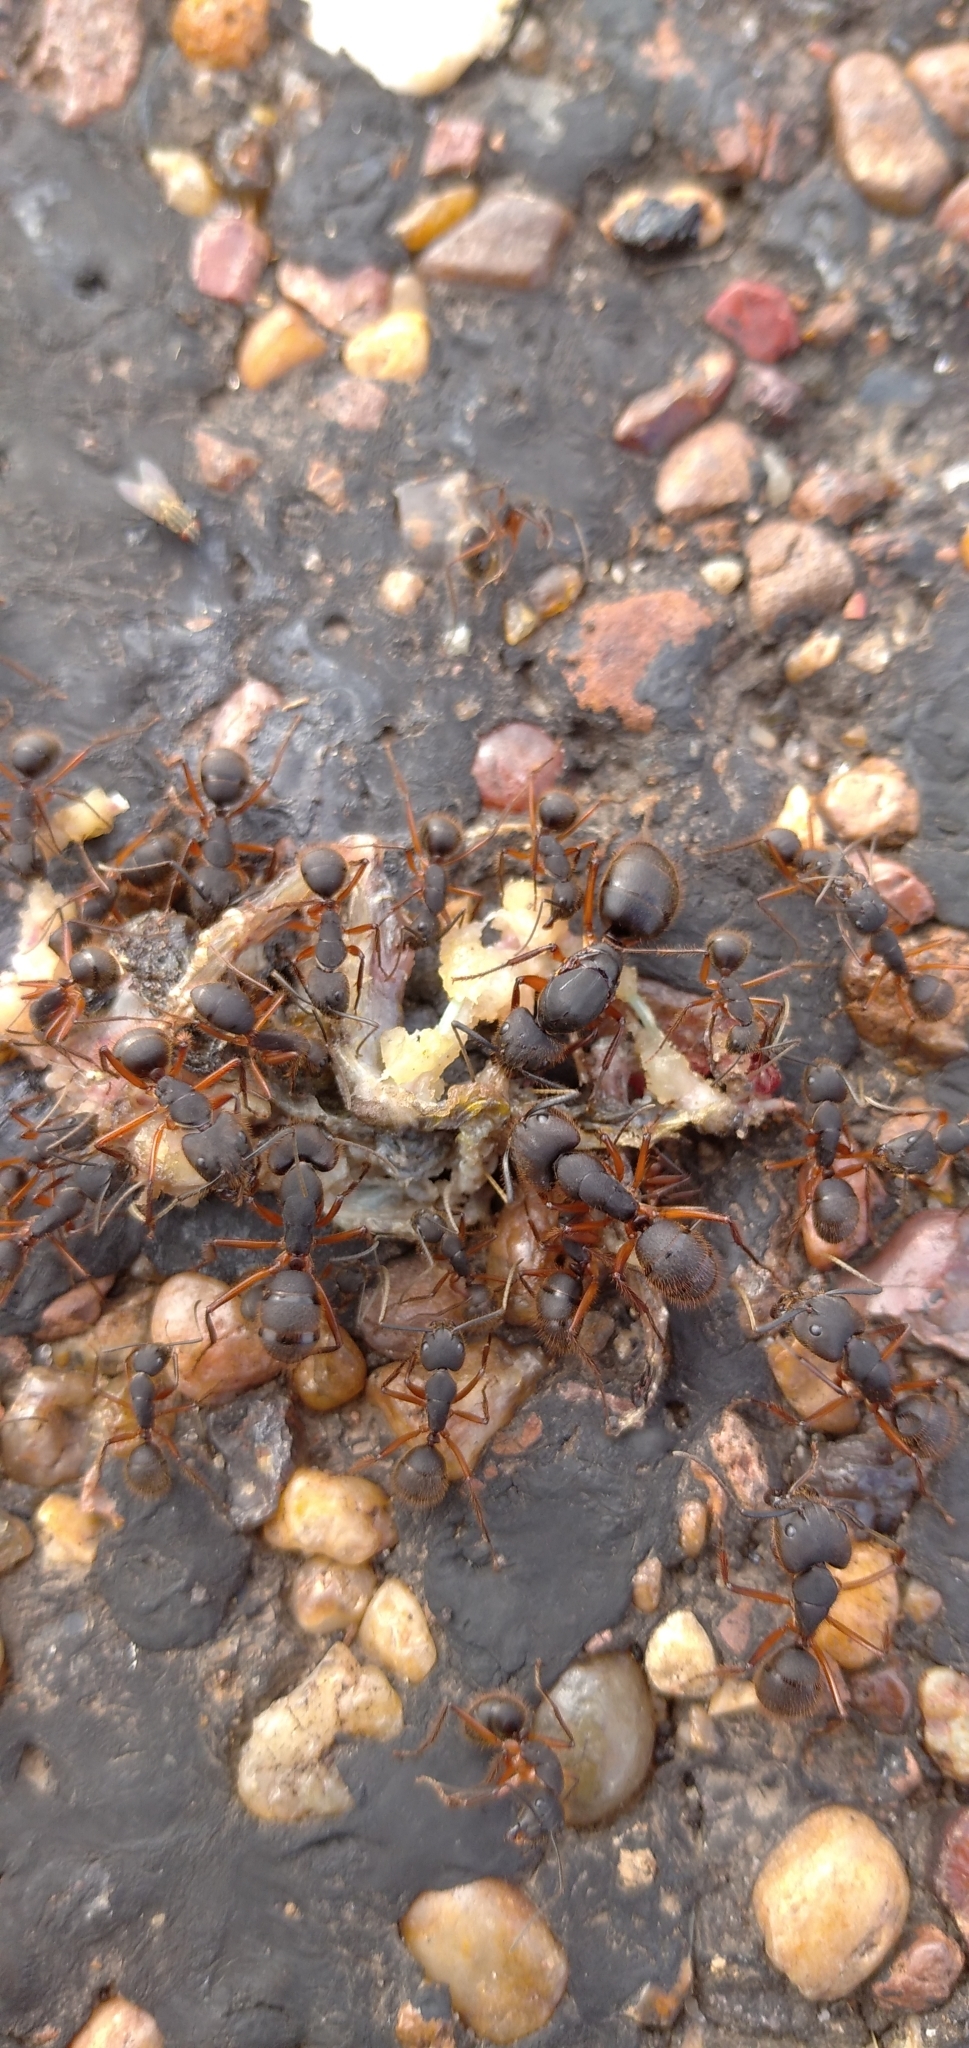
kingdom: Animalia
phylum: Arthropoda
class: Insecta
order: Hymenoptera
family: Formicidae
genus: Camponotus
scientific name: Camponotus rufipes
